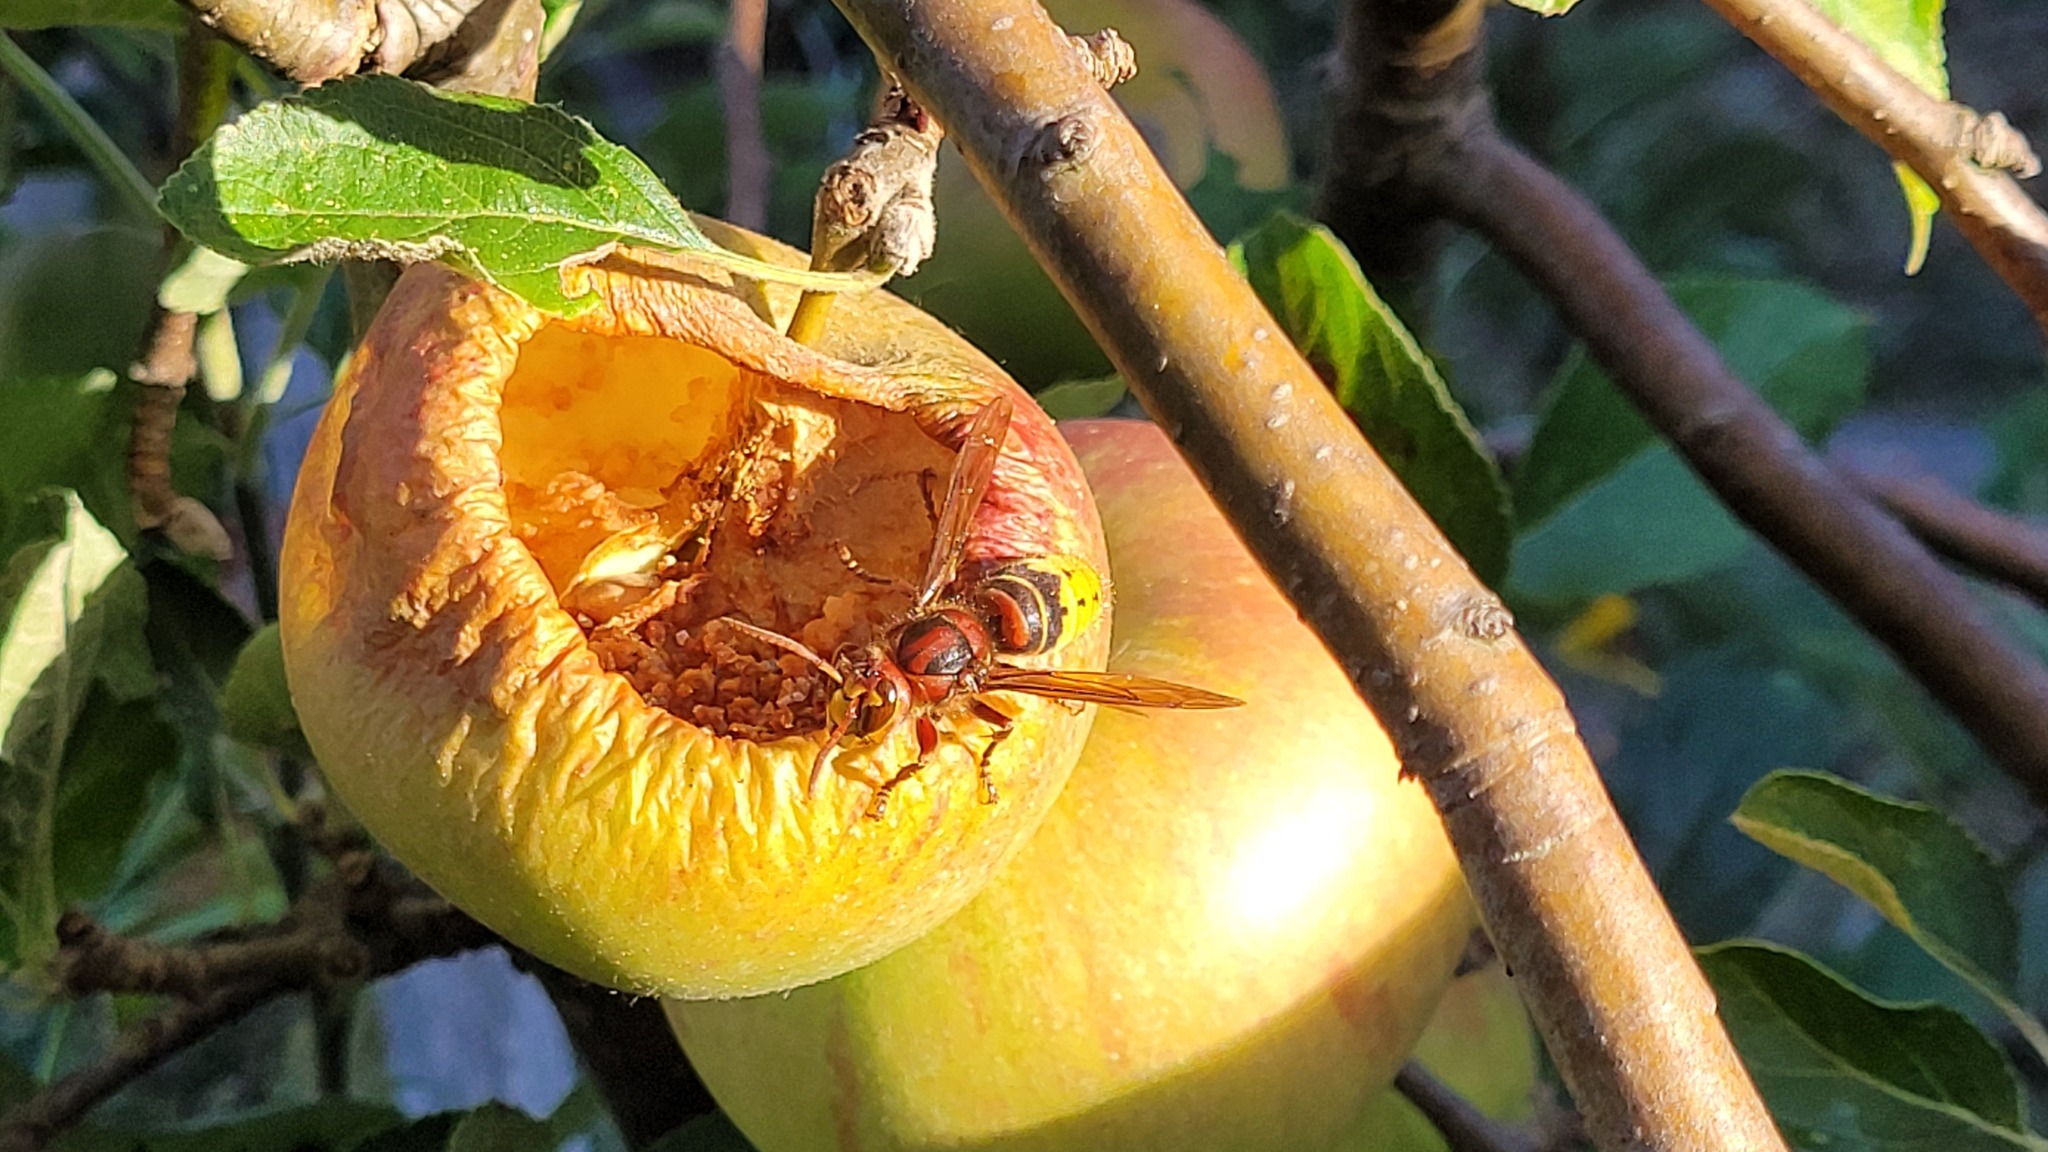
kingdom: Animalia
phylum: Arthropoda
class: Insecta
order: Hymenoptera
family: Vespidae
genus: Vespa
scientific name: Vespa crabro
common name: Hornet
